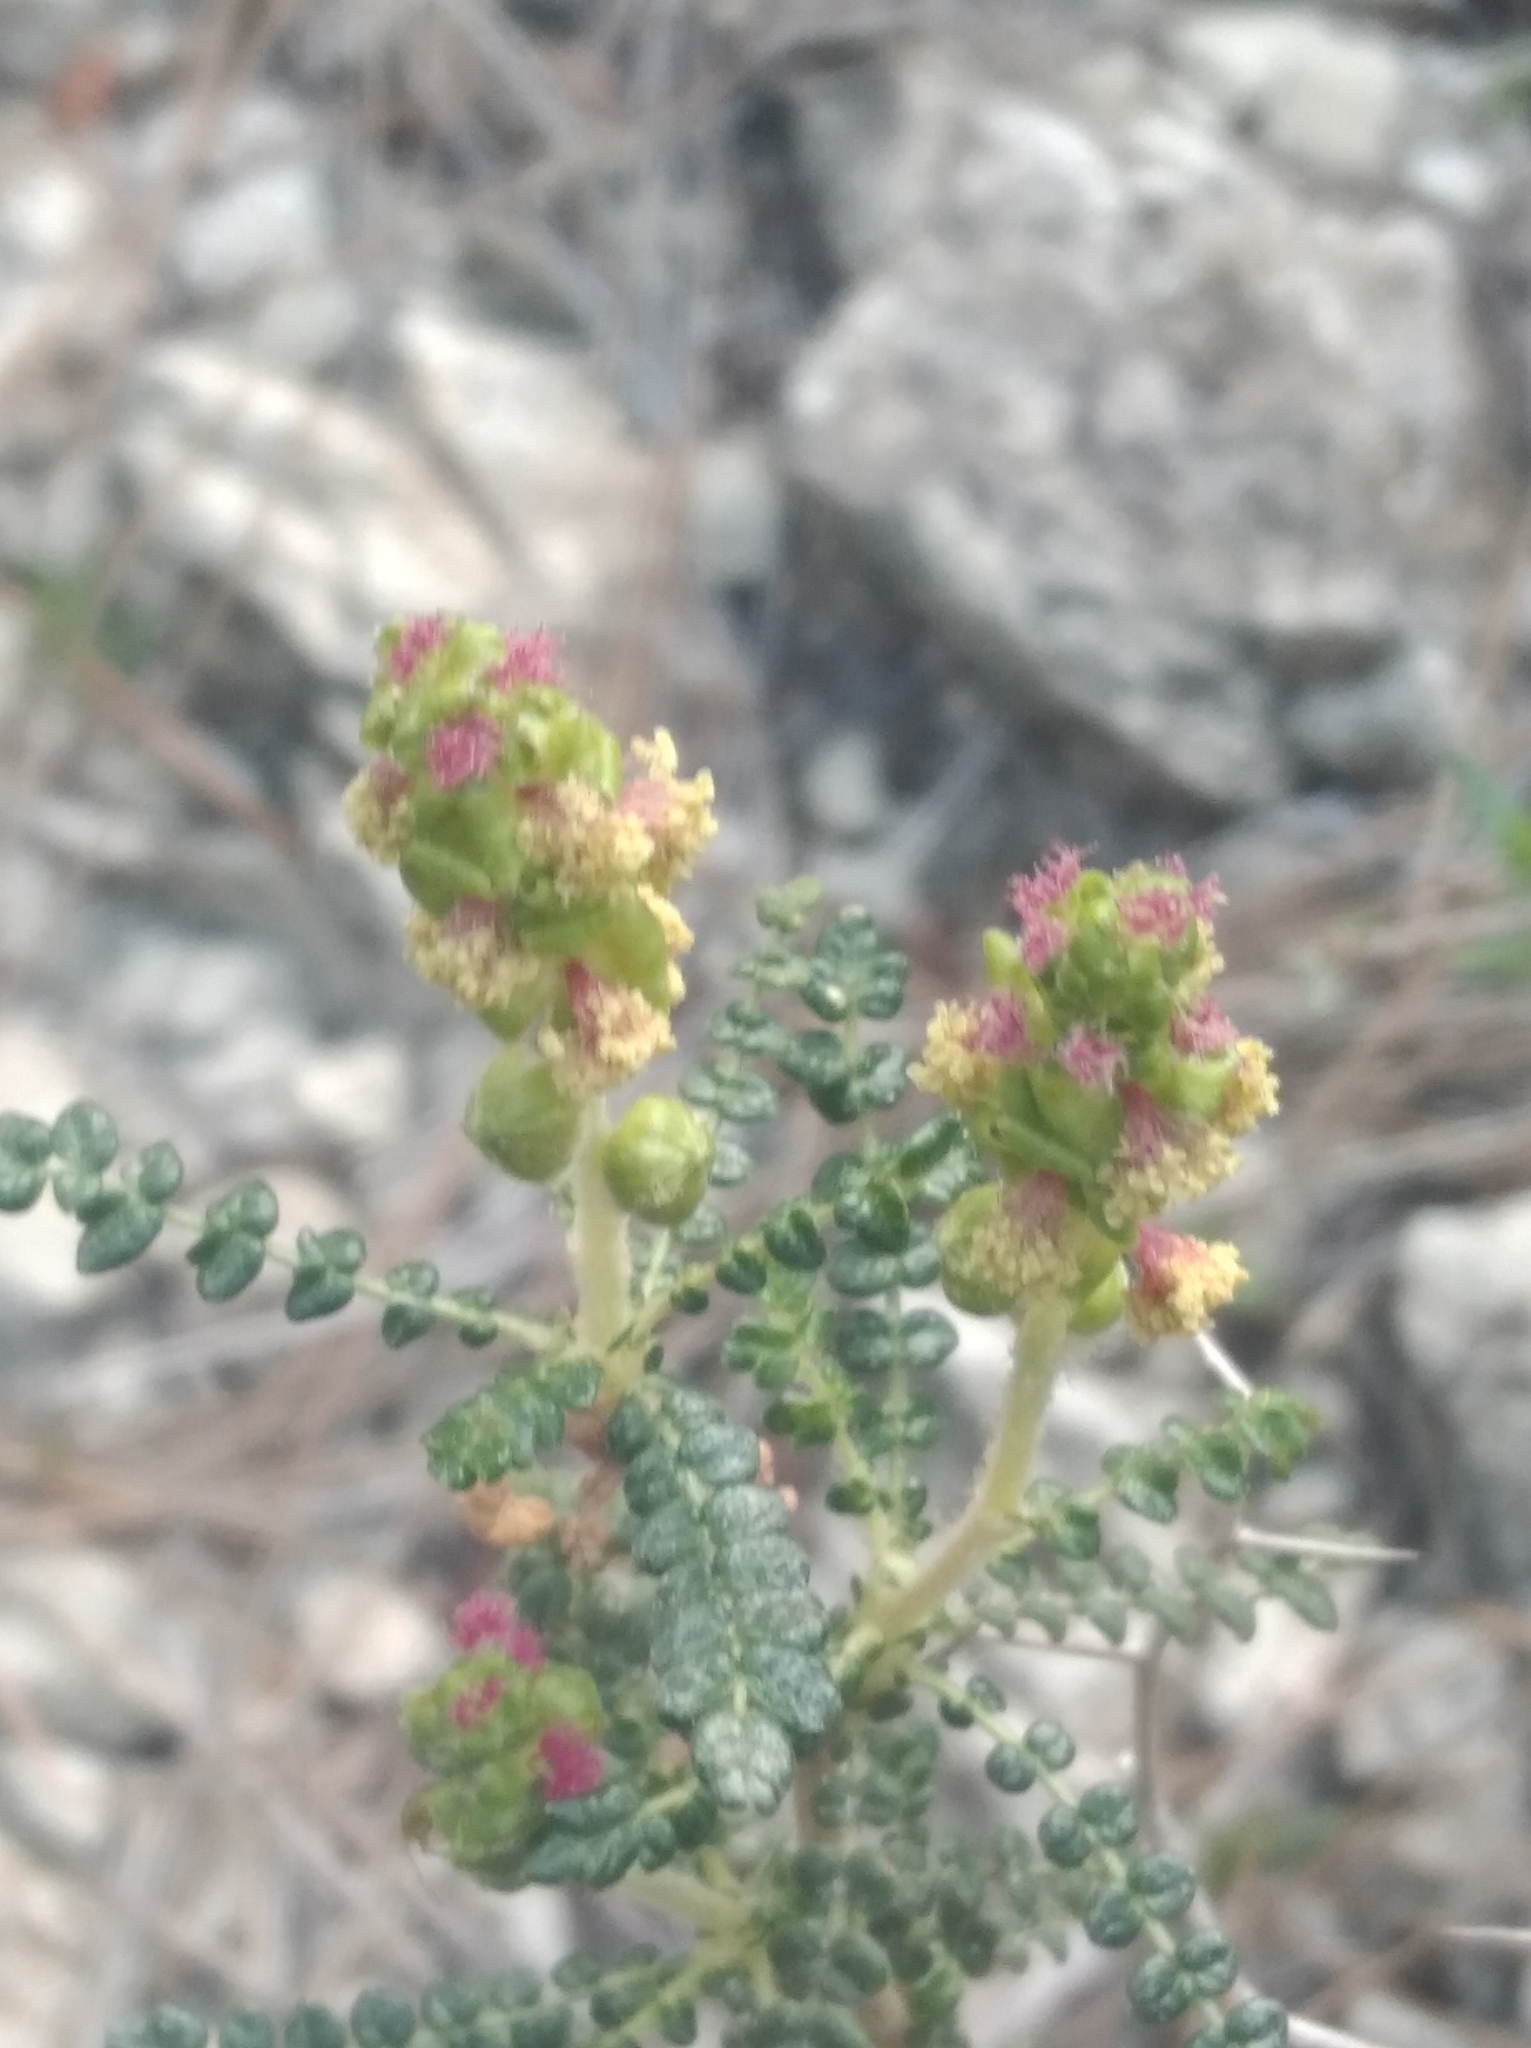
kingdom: Plantae
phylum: Tracheophyta
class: Magnoliopsida
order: Rosales
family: Rosaceae
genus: Sarcopoterium
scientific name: Sarcopoterium spinosum
